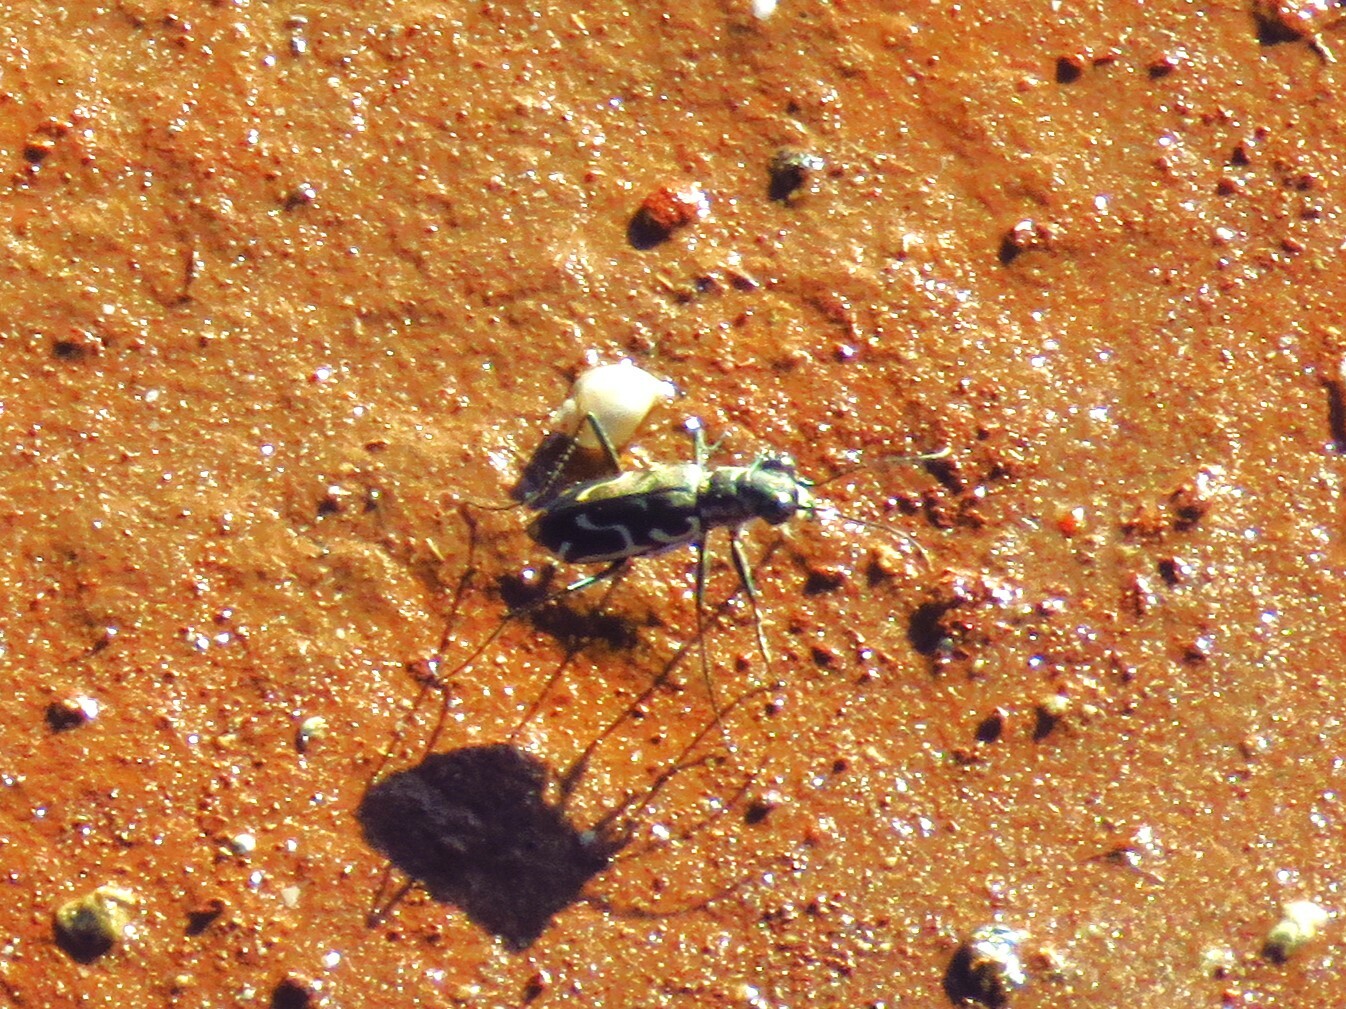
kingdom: Animalia
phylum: Arthropoda
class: Insecta
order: Coleoptera
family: Carabidae
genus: Cicindela
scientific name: Cicindela tenuisignata
